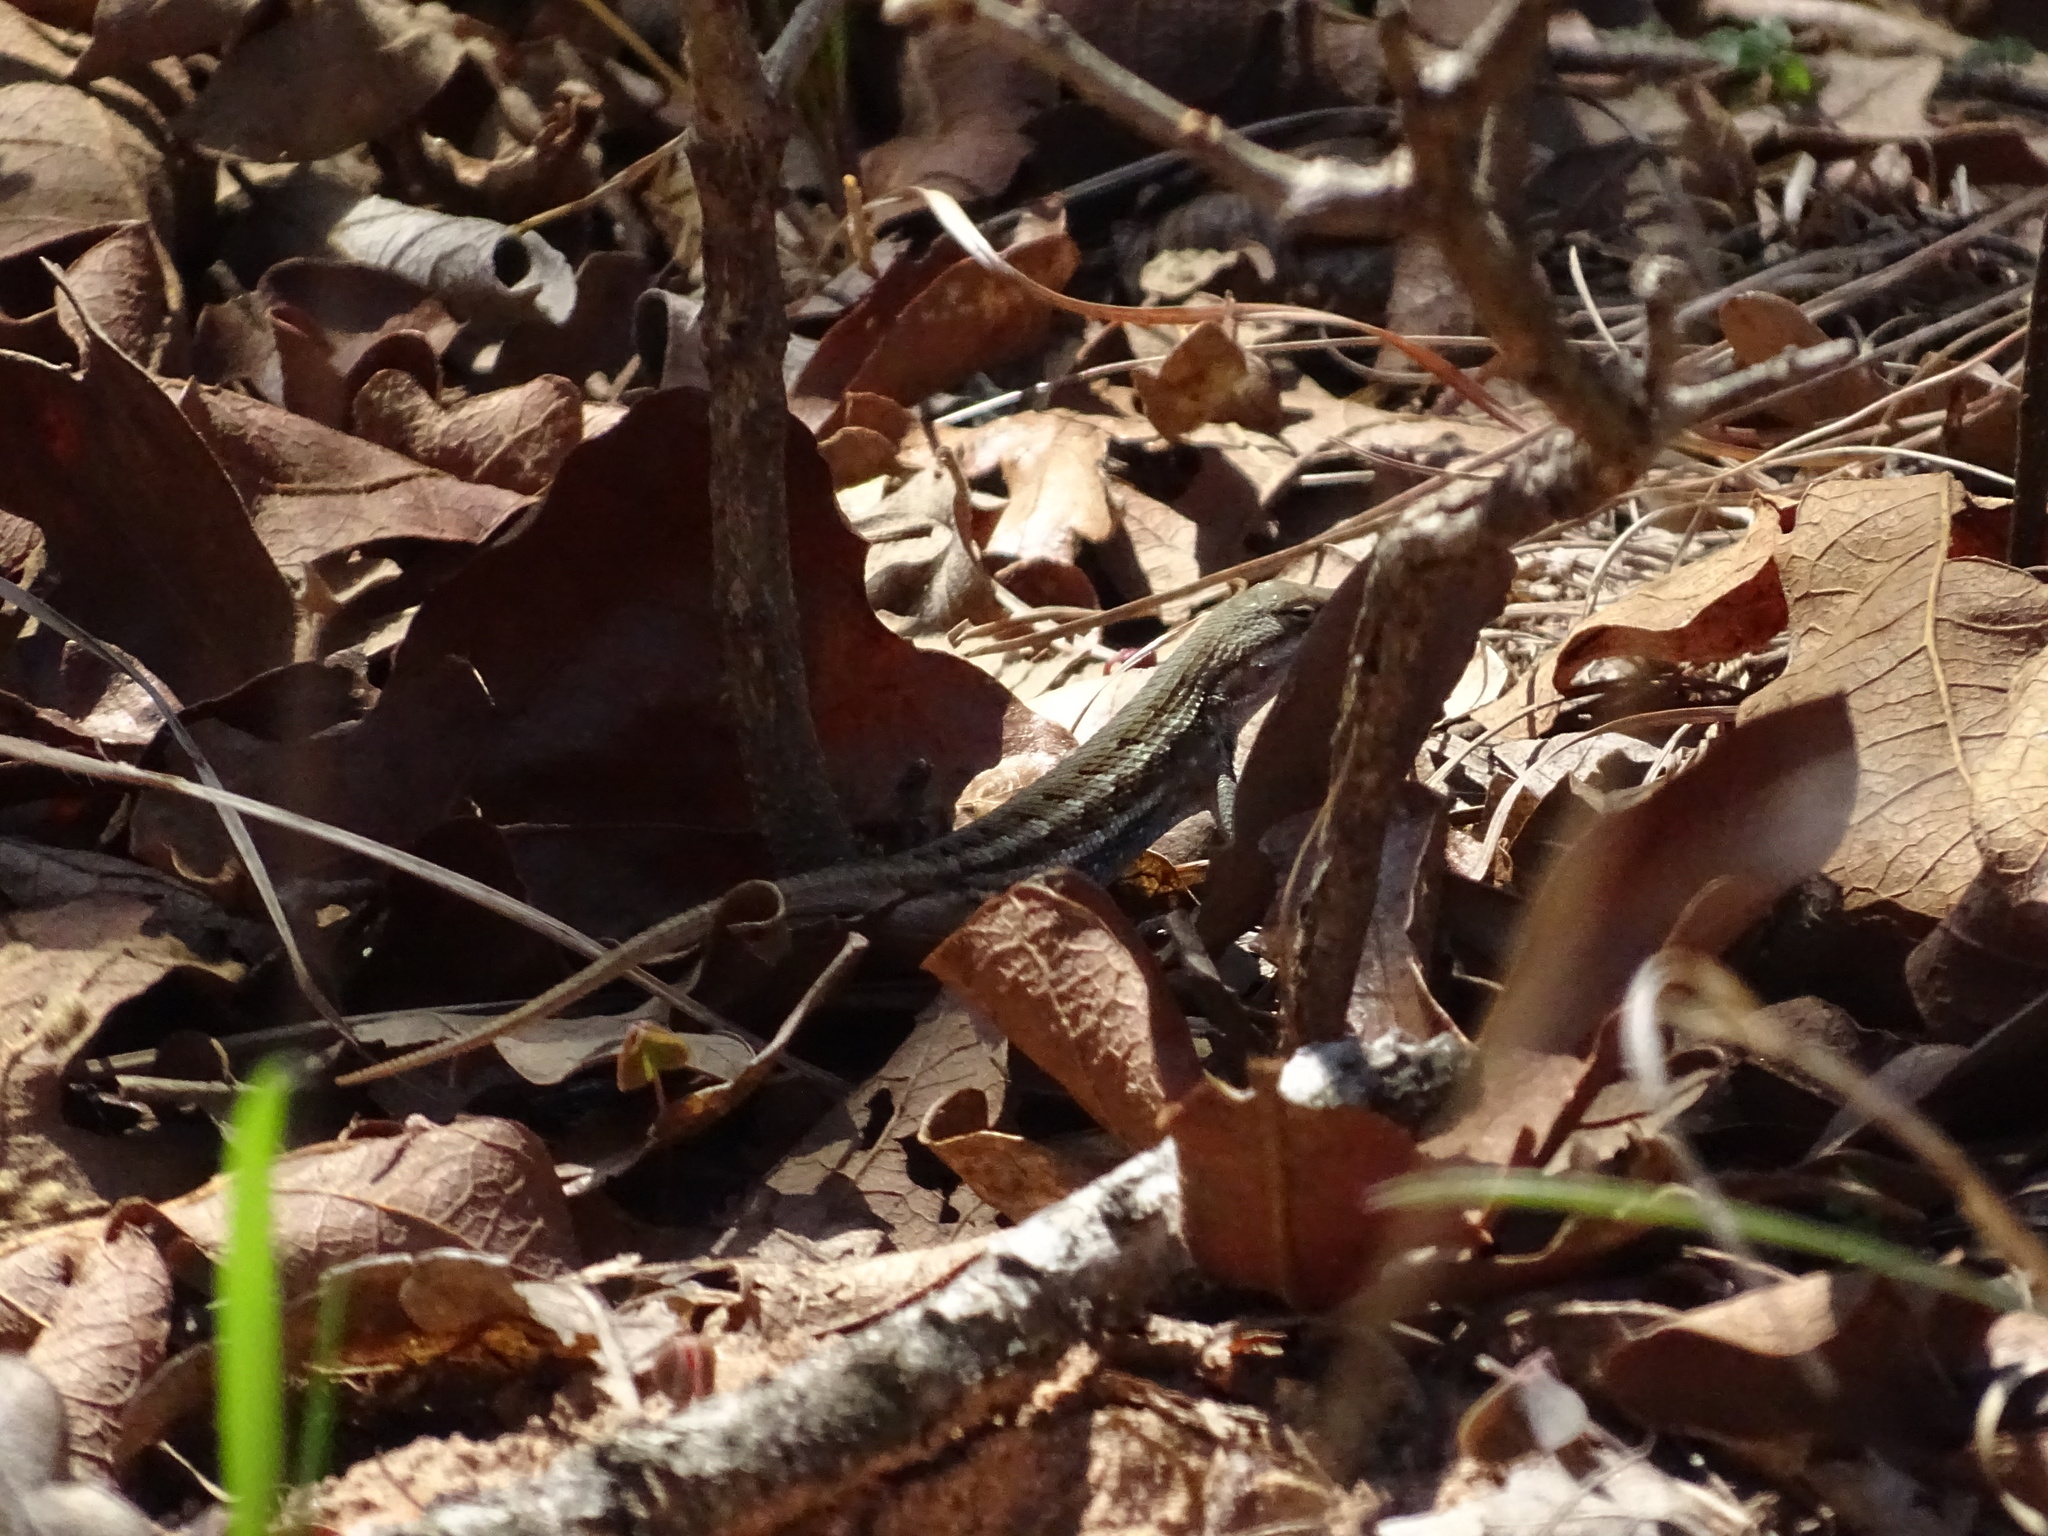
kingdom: Animalia
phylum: Chordata
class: Squamata
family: Phrynosomatidae
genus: Sceloporus
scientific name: Sceloporus consobrinus
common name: Southern prairie lizard
